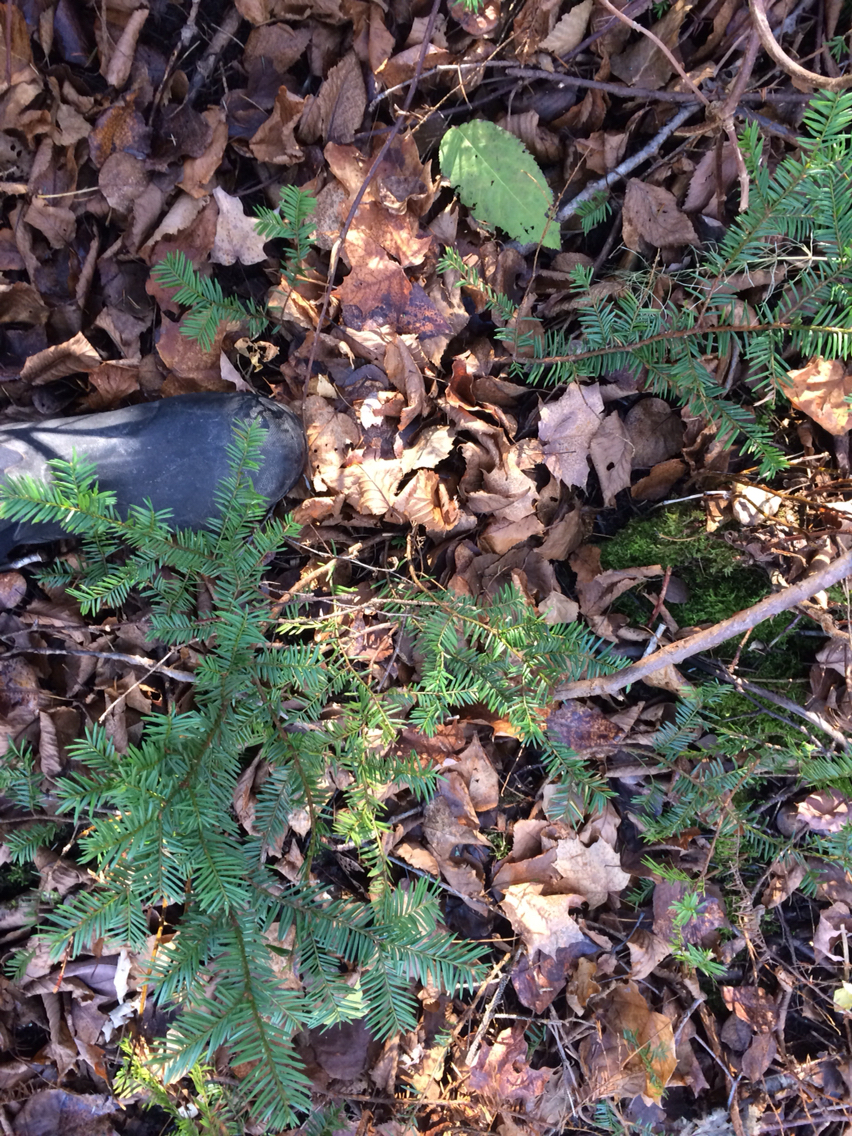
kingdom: Plantae
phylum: Tracheophyta
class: Pinopsida
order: Pinales
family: Taxaceae
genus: Taxus
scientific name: Taxus canadensis
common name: American yew
